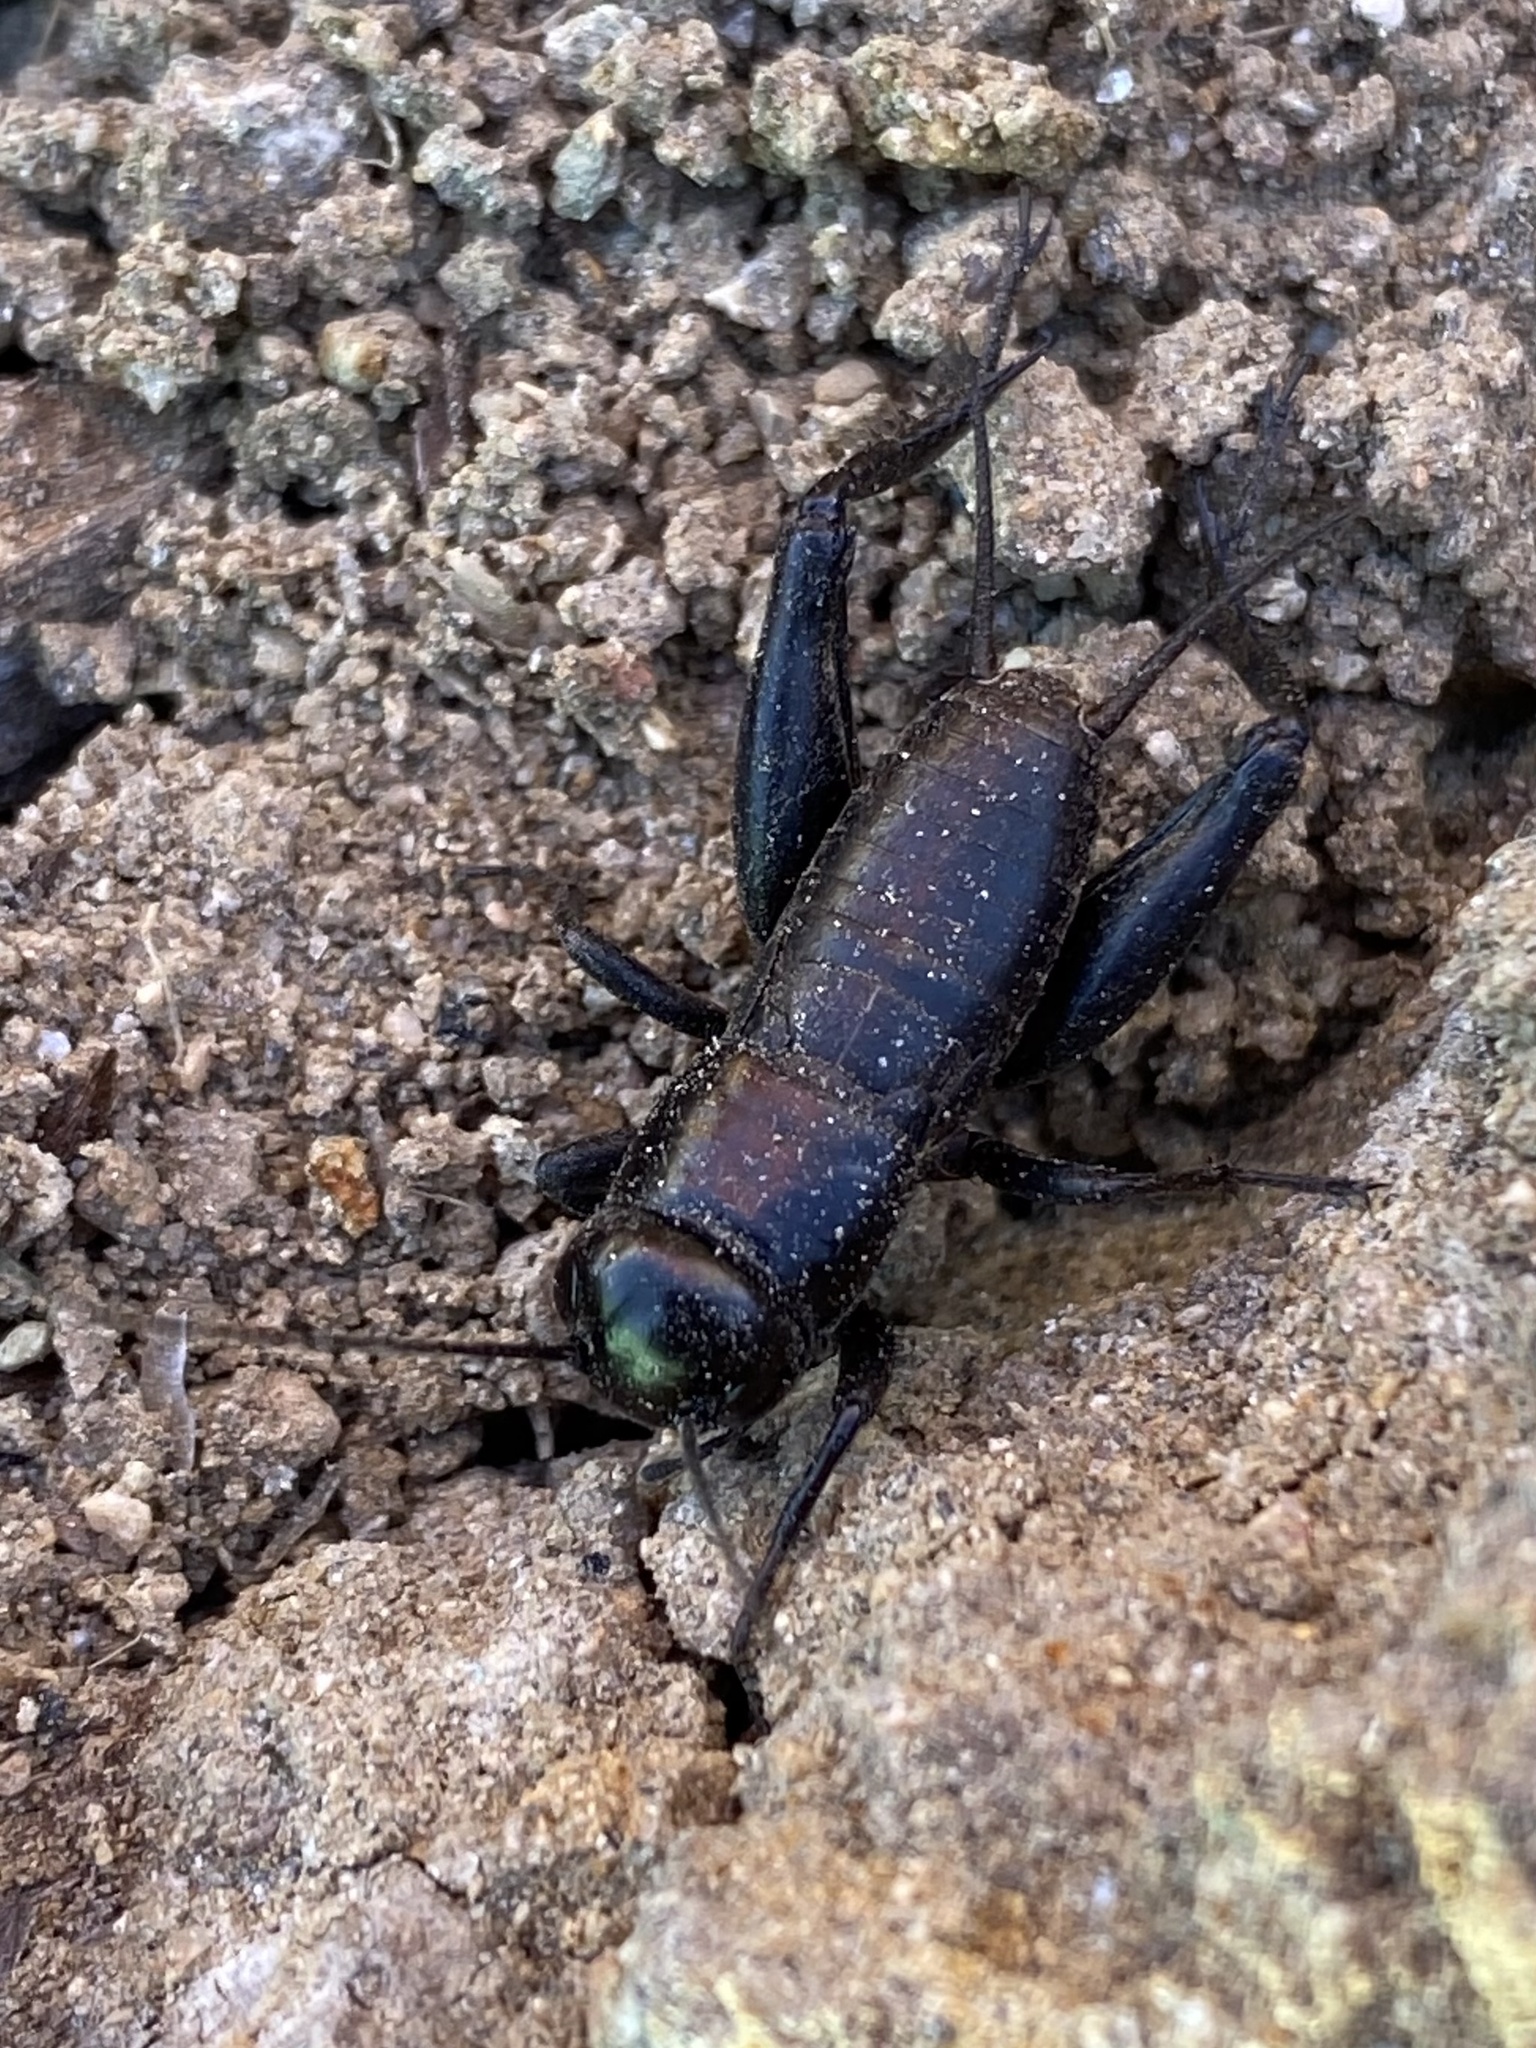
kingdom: Animalia
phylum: Arthropoda
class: Insecta
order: Orthoptera
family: Gryllidae
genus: Gryllus
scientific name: Gryllus veletis
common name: Spring field cricket
